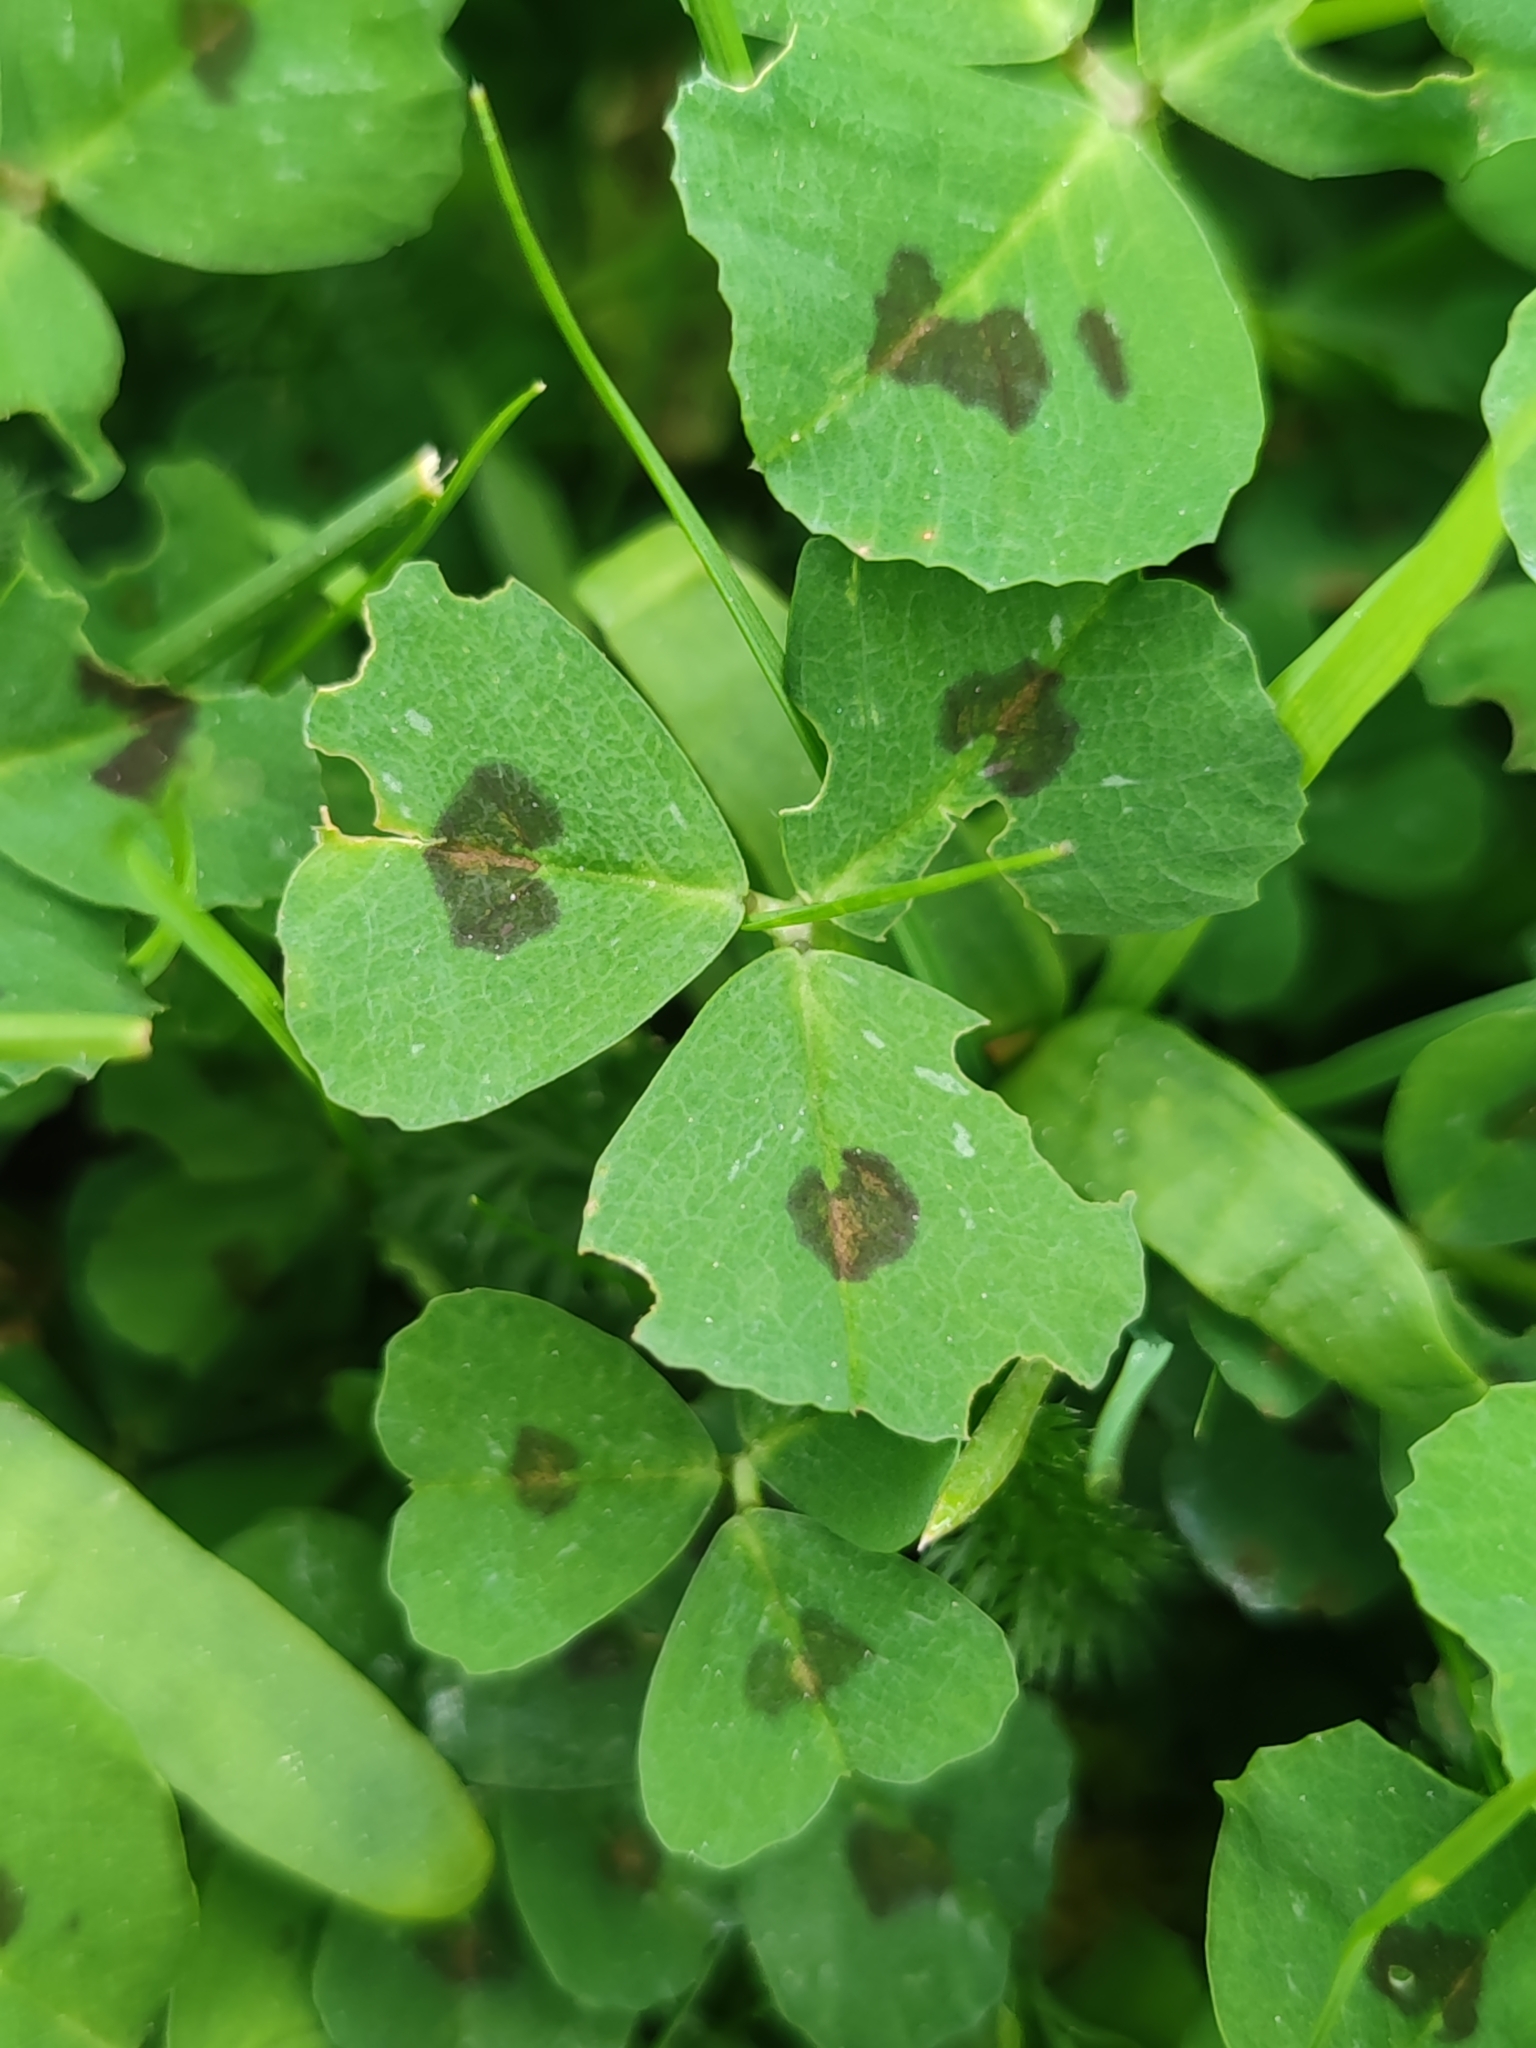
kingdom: Plantae
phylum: Tracheophyta
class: Magnoliopsida
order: Fabales
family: Fabaceae
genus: Medicago
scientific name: Medicago arabica
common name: Spotted medick
